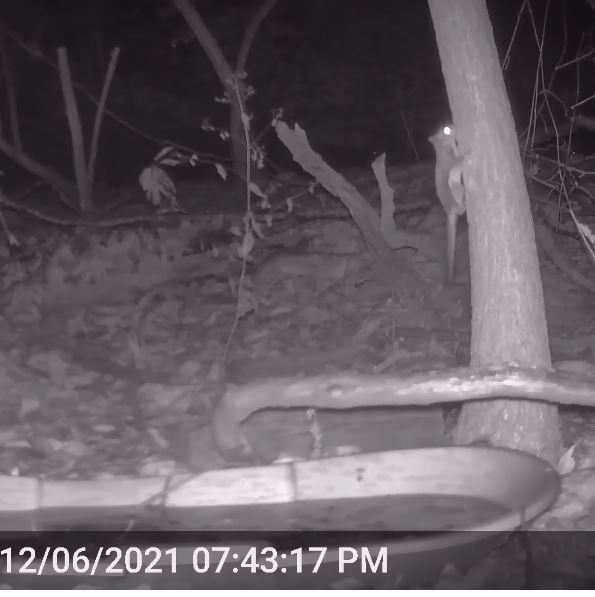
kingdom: Animalia
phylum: Chordata
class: Mammalia
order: Rodentia
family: Sciuridae
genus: Glaucomys
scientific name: Glaucomys volans
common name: Southern flying squirrel
